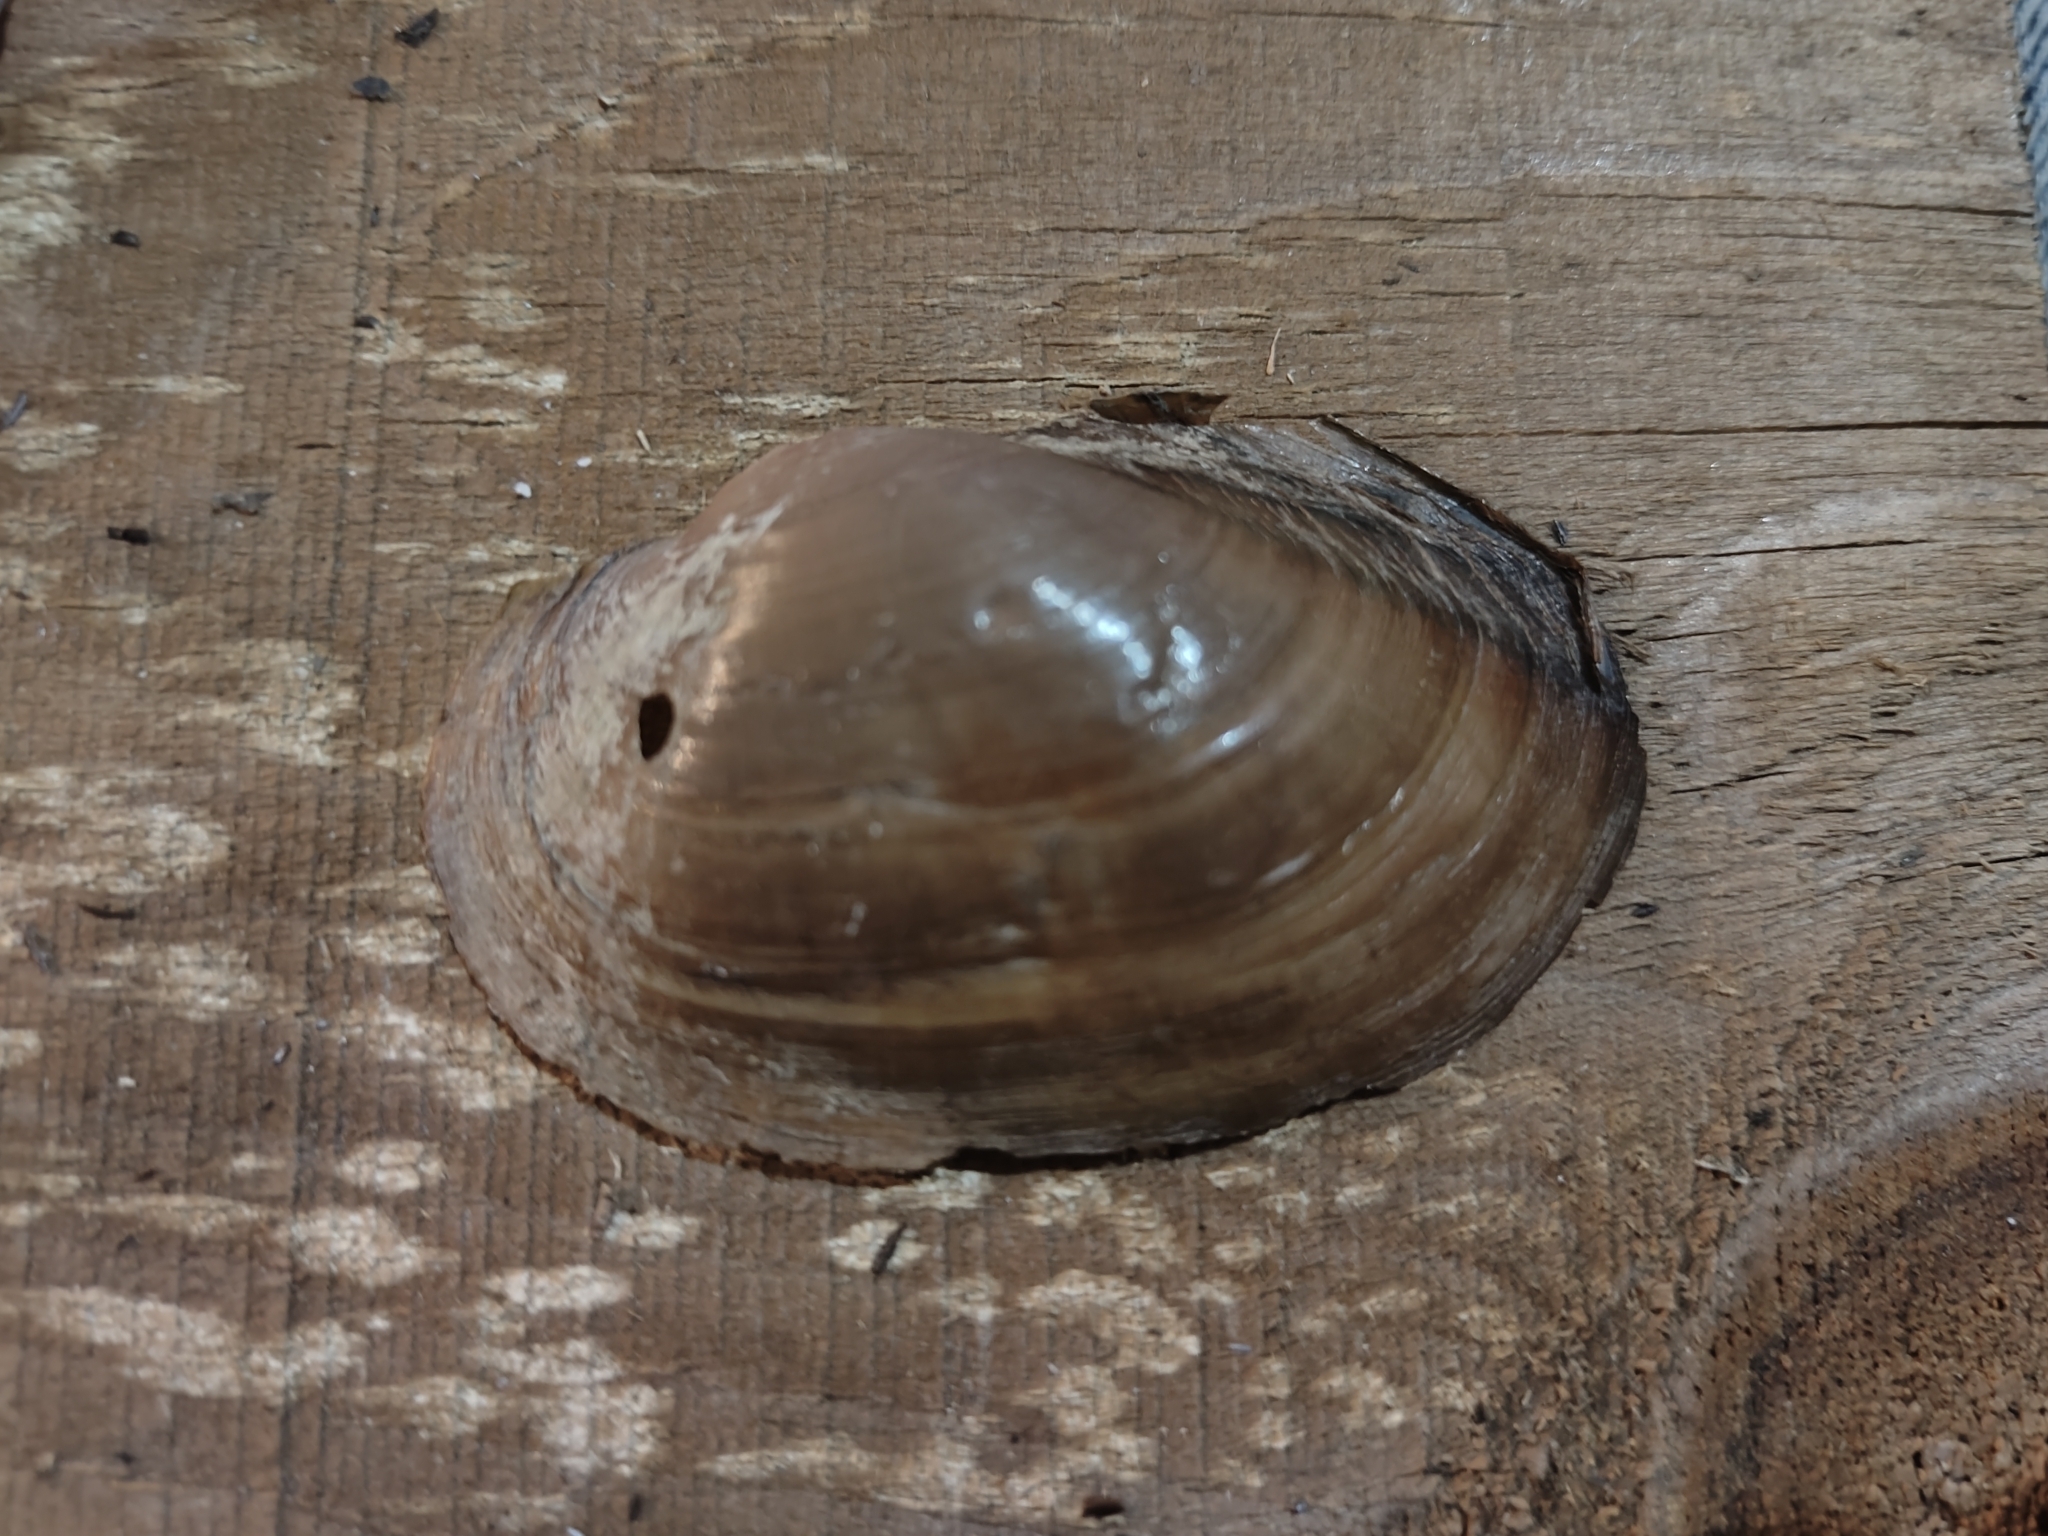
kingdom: Animalia
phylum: Mollusca
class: Bivalvia
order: Unionida
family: Unionidae
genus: Pyganodon
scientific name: Pyganodon grandis
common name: Giant floater
